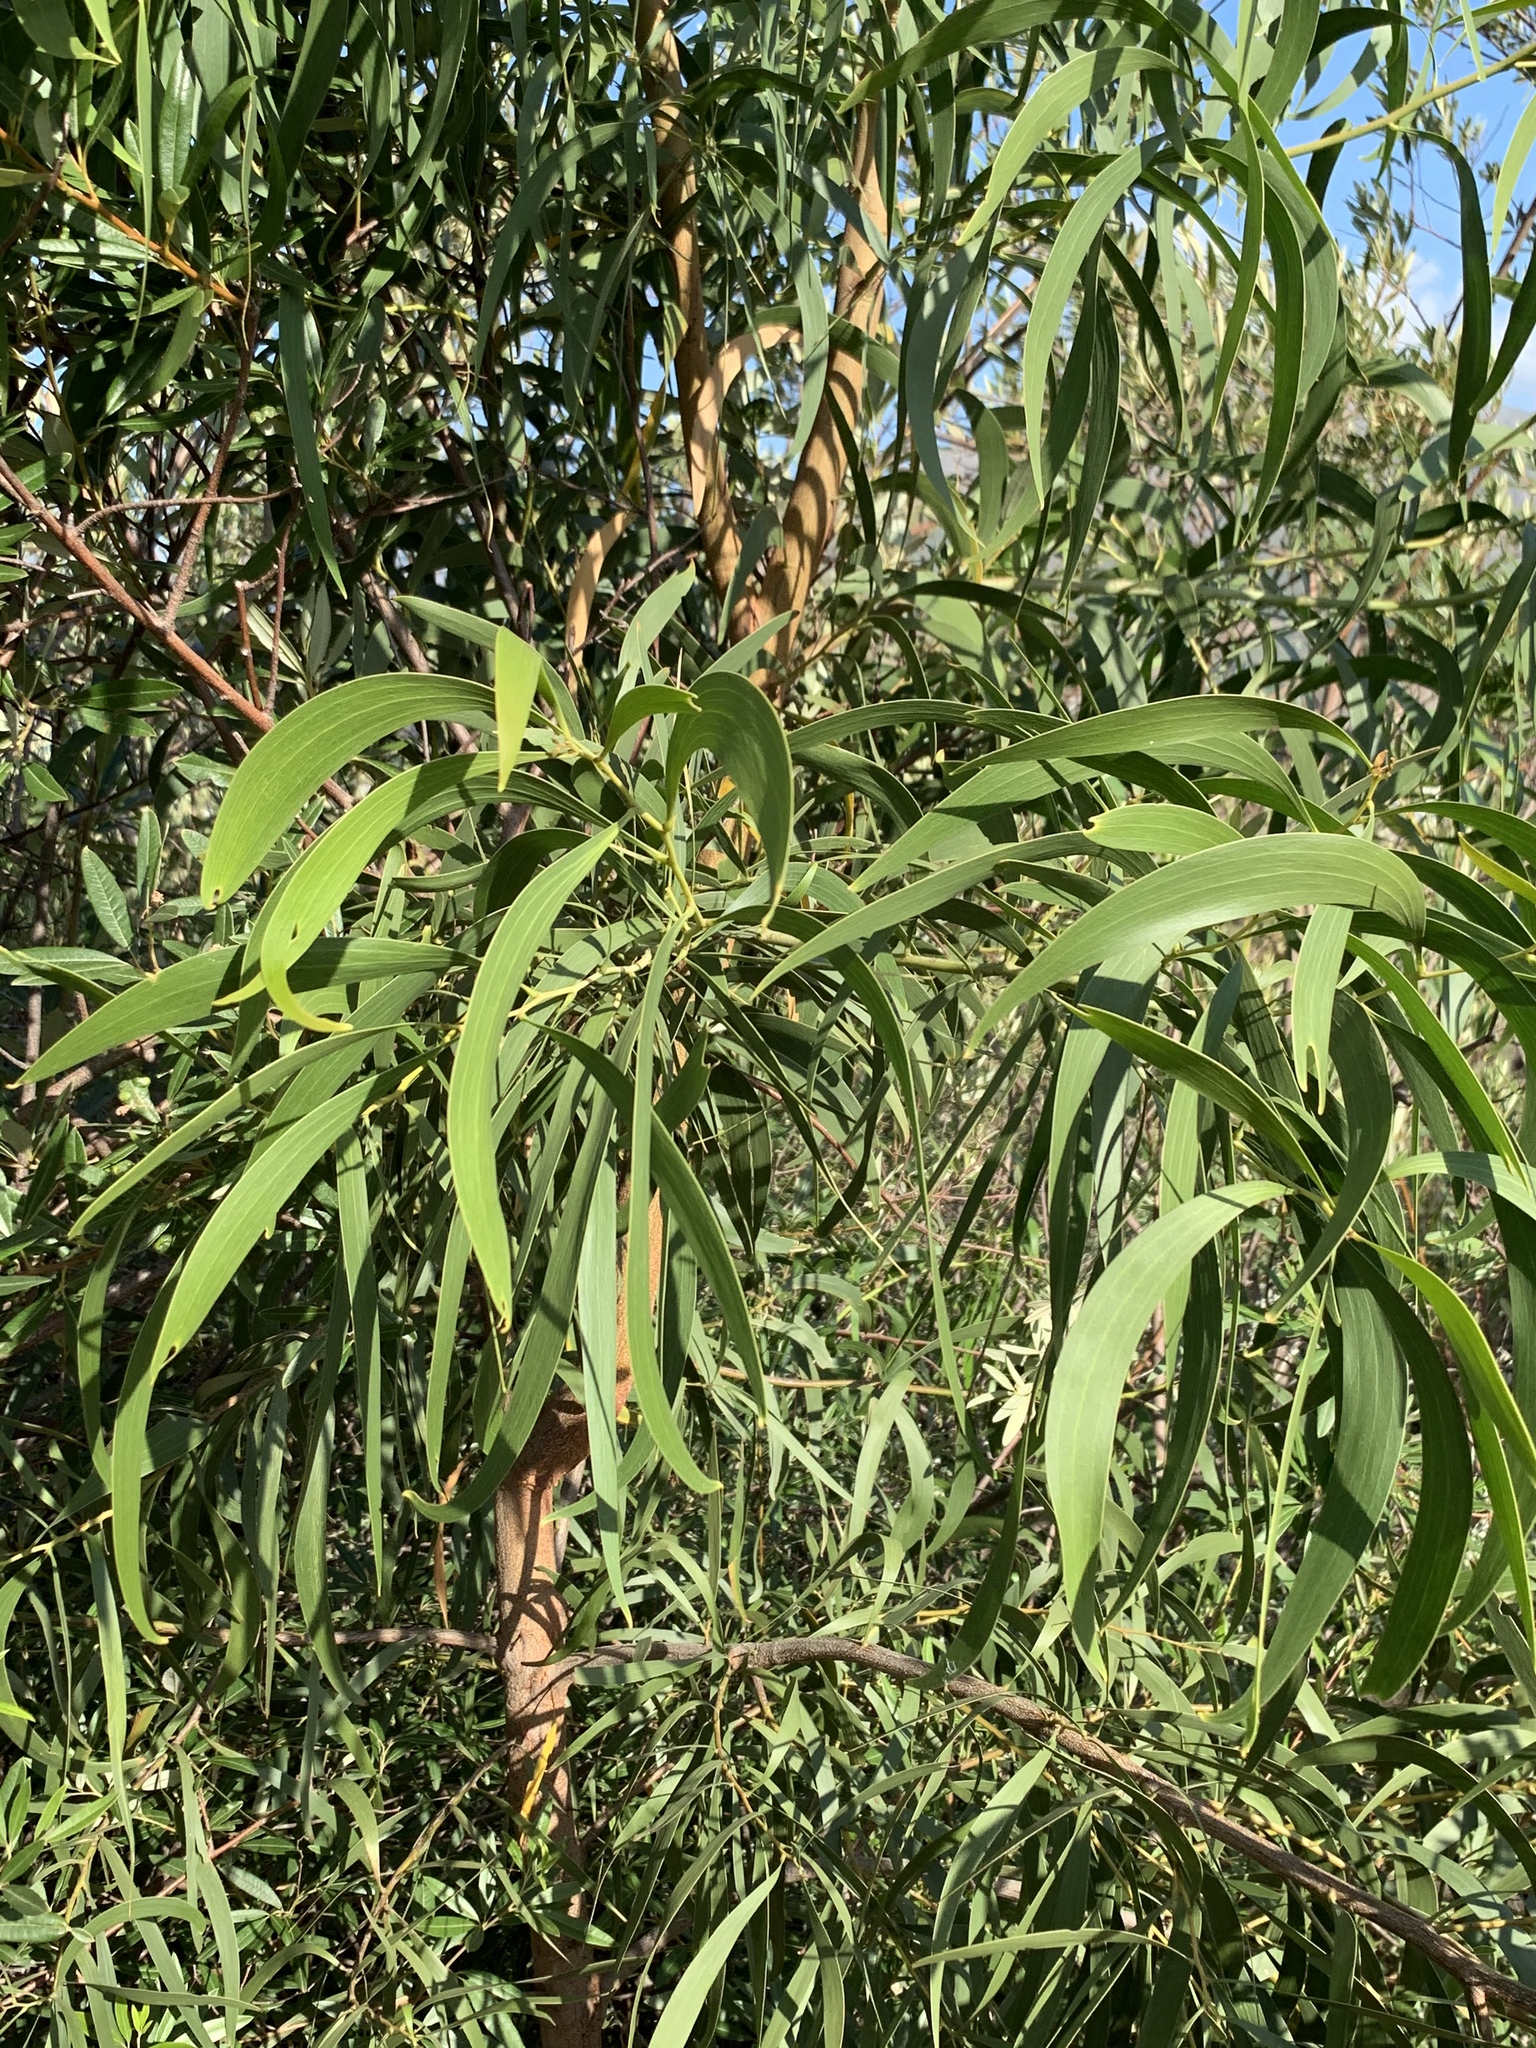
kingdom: Plantae
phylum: Tracheophyta
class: Magnoliopsida
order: Fabales
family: Fabaceae
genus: Acacia
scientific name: Acacia implexa
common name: Black wattle
